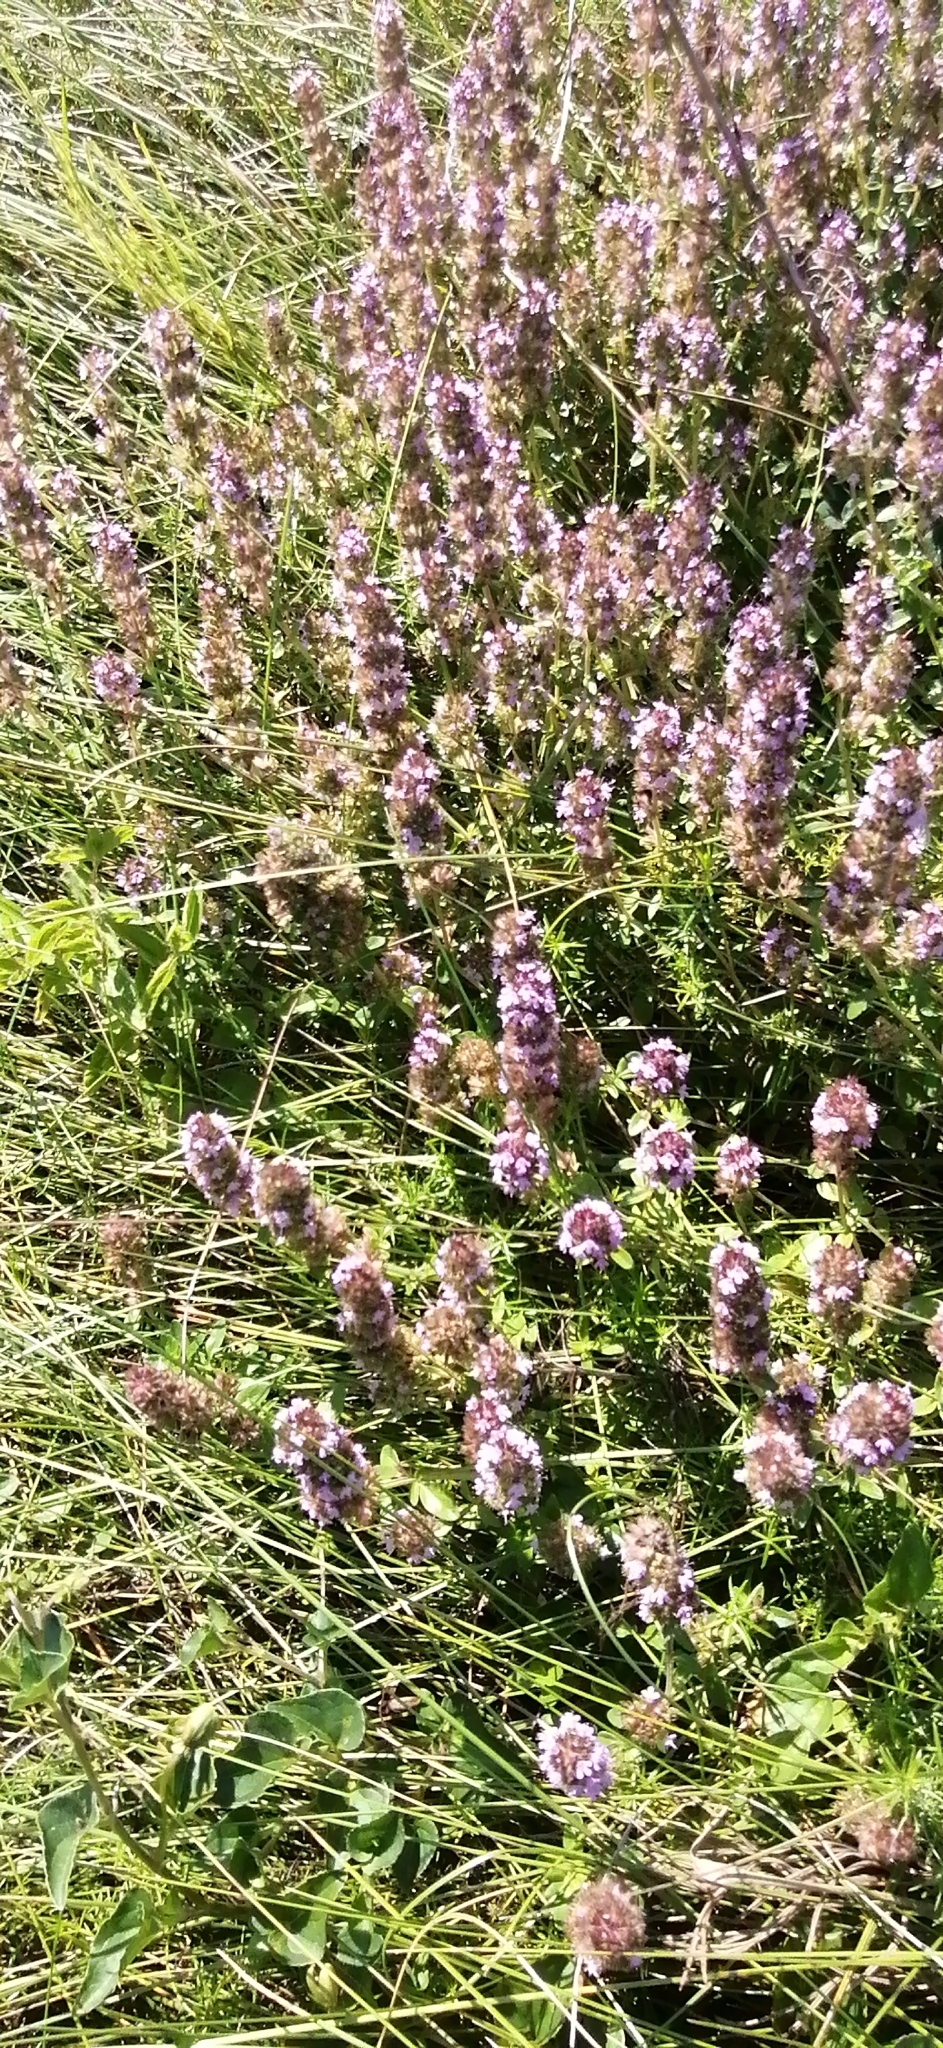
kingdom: Plantae
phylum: Tracheophyta
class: Magnoliopsida
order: Lamiales
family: Lamiaceae
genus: Thymus
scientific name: Thymus pulegioides
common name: Large thyme
